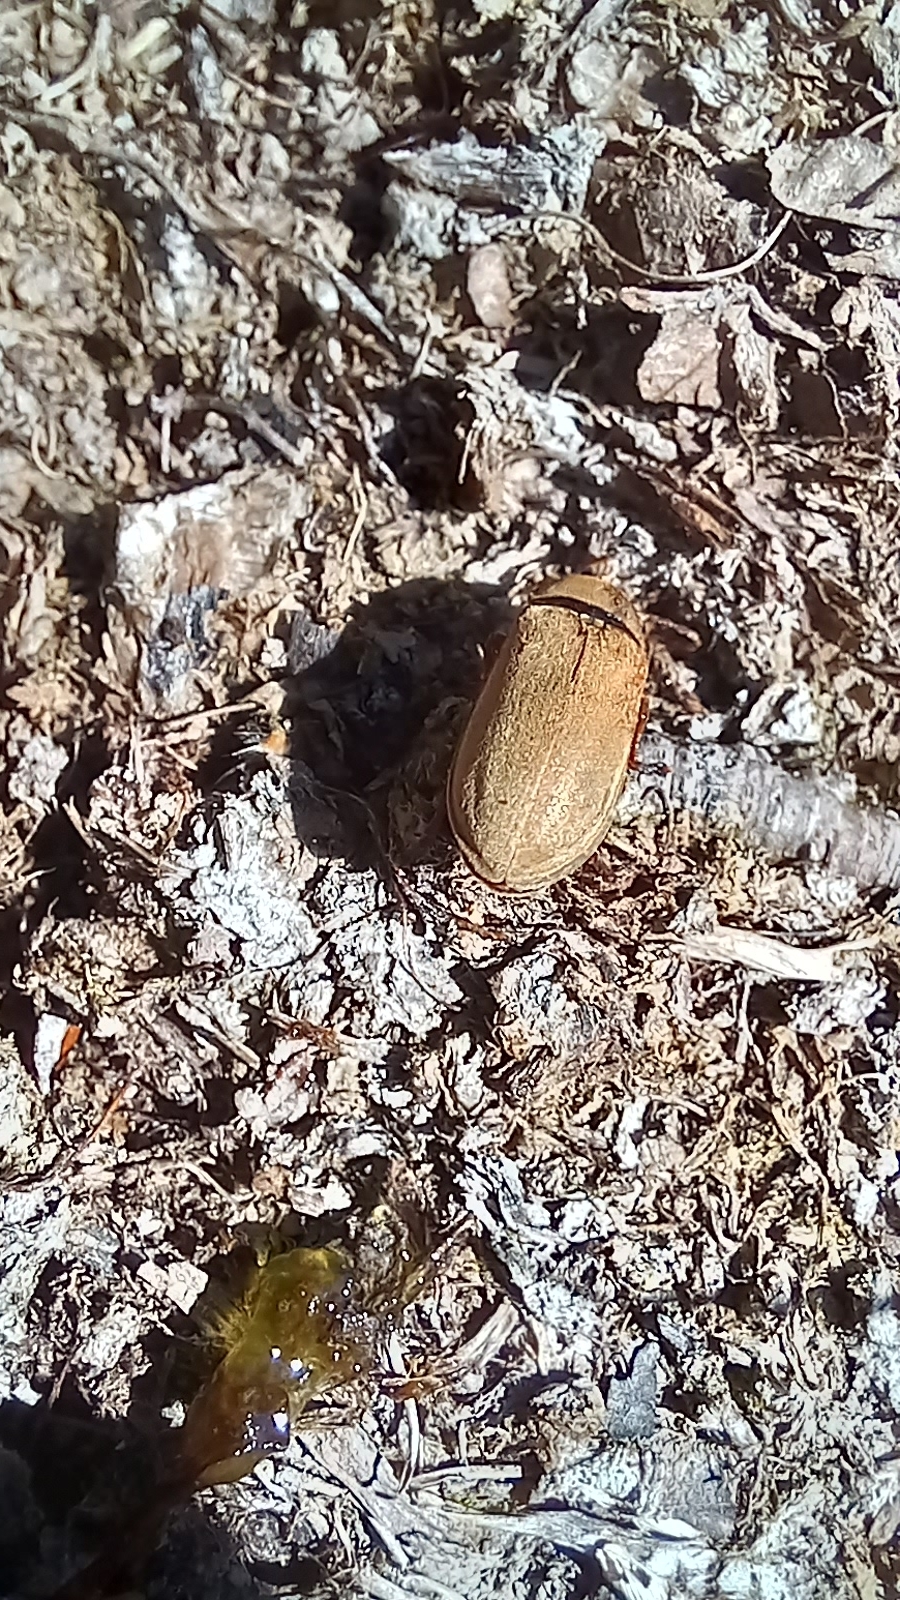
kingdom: Animalia
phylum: Arthropoda
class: Insecta
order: Coleoptera
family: Dascillidae
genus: Dascillus
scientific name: Dascillus cervinus
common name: Orchid beetle
